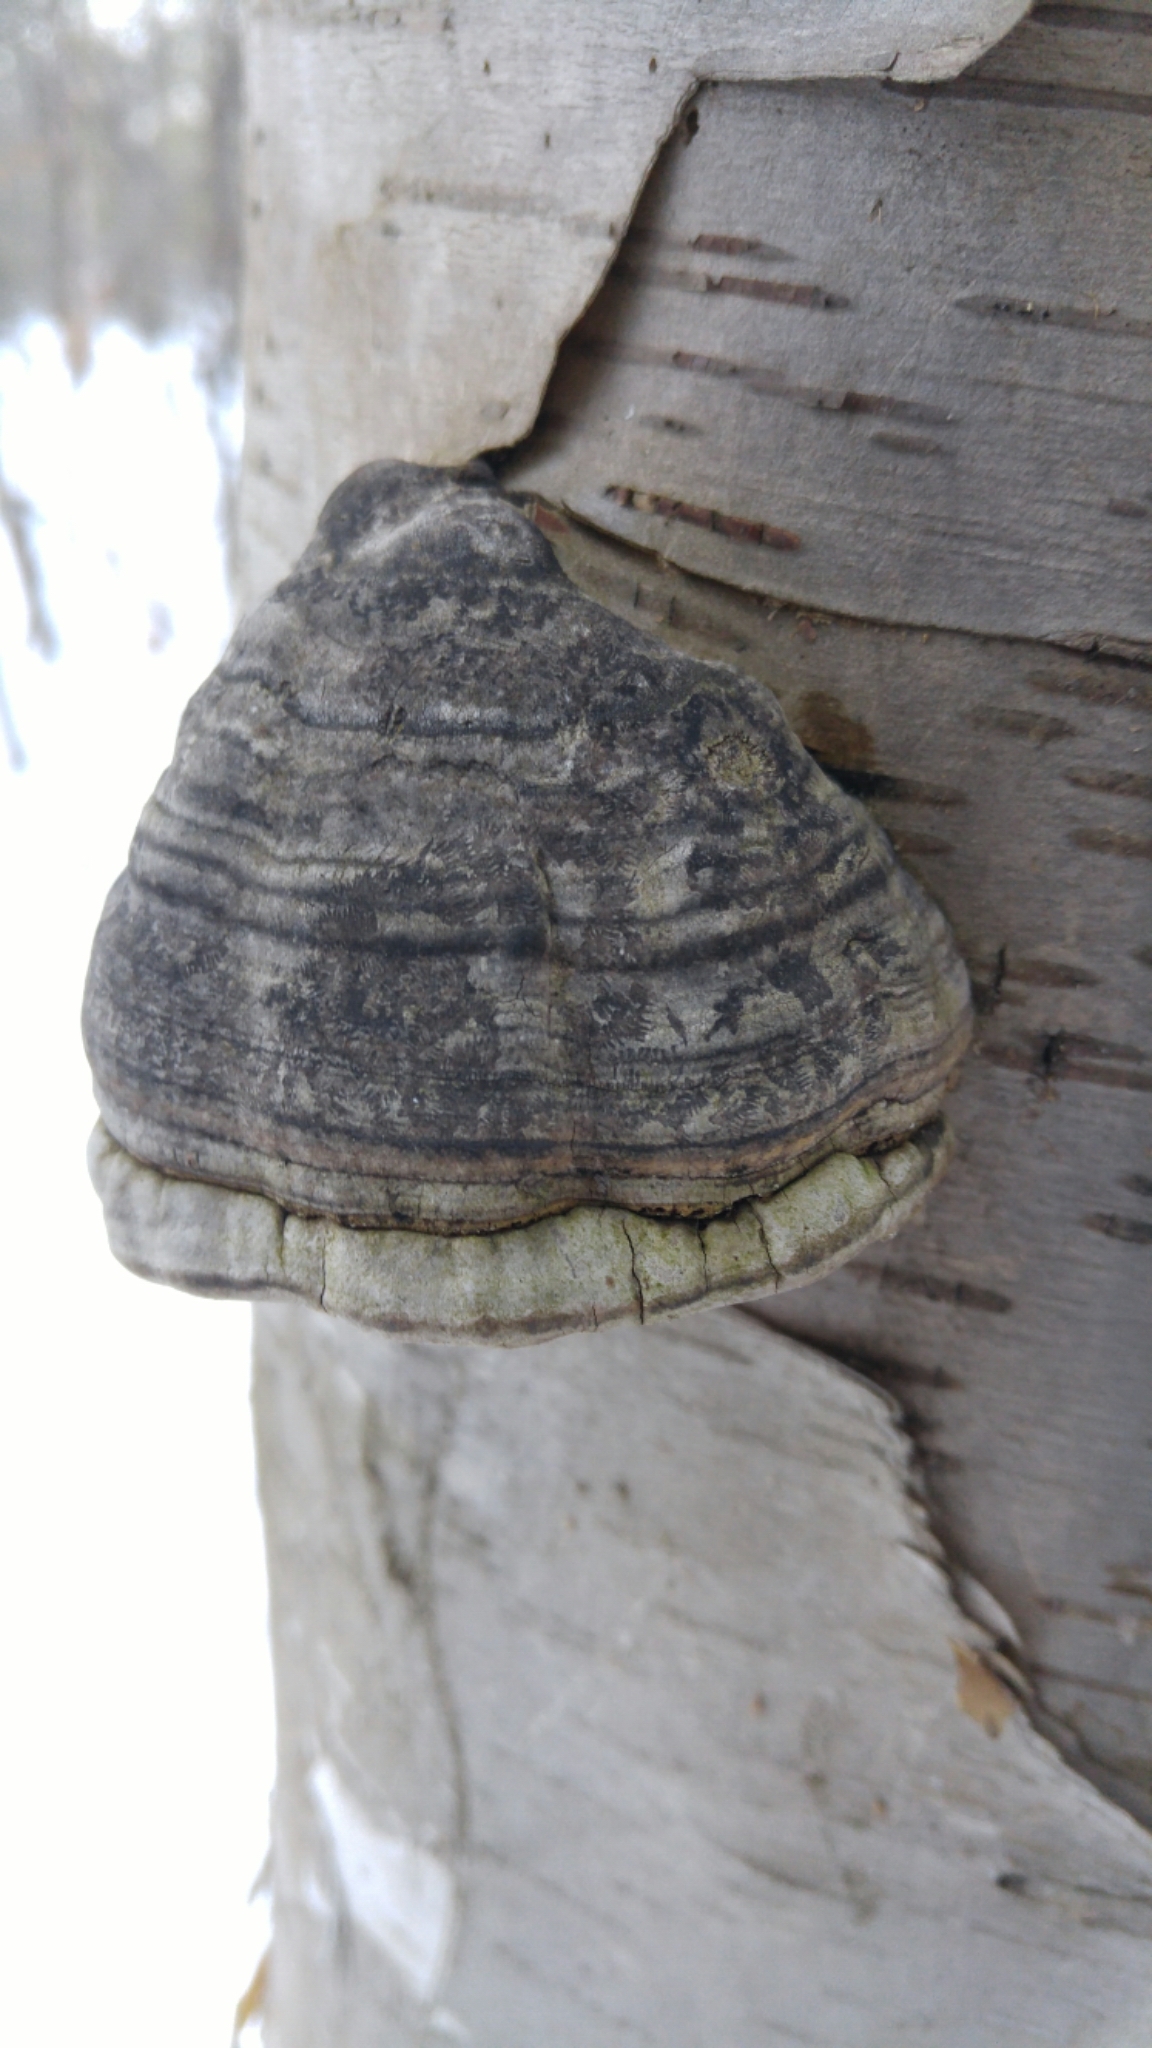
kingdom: Fungi
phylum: Basidiomycota
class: Agaricomycetes
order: Polyporales
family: Polyporaceae
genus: Fomes
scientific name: Fomes fomentarius
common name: Hoof fungus
